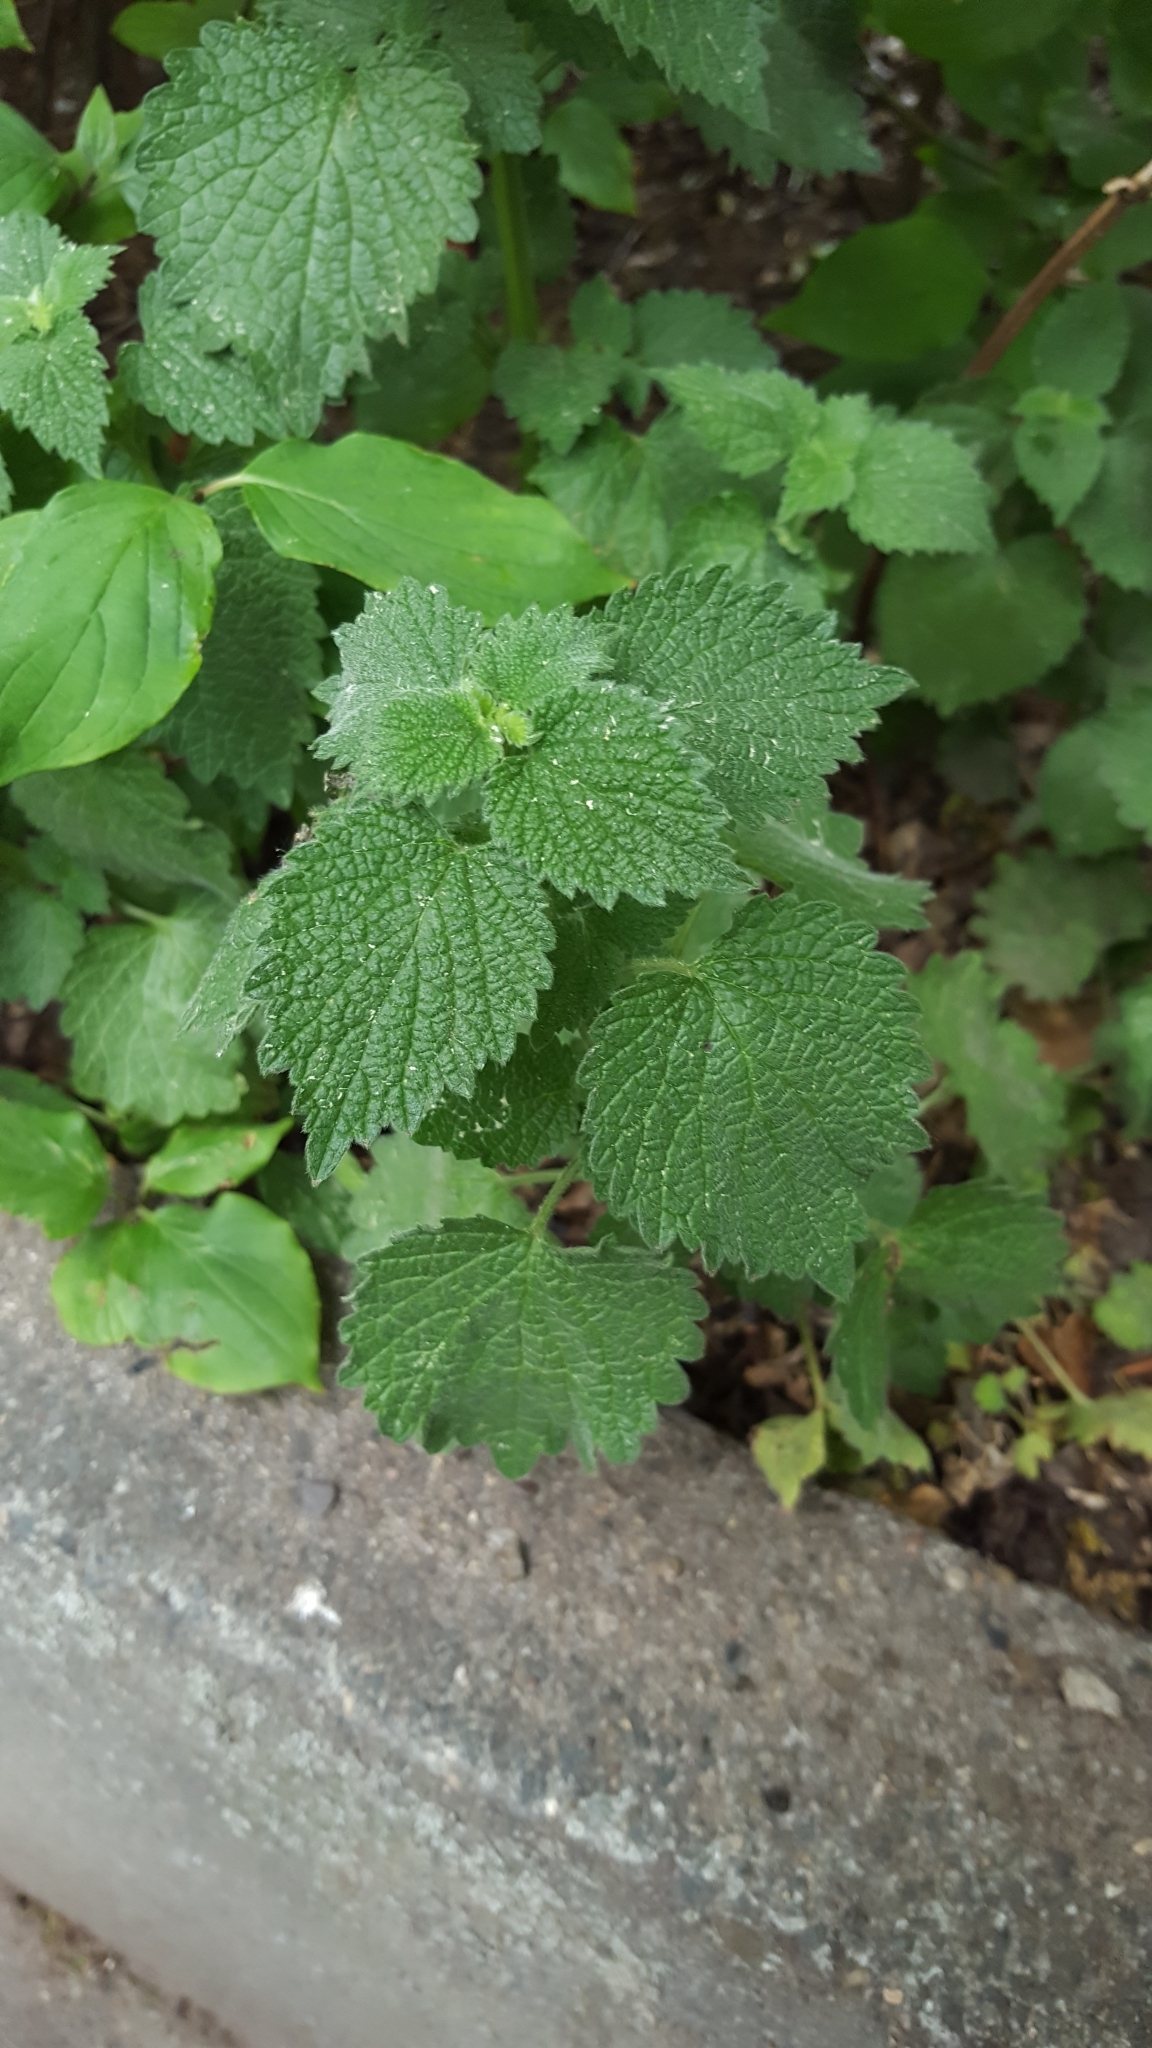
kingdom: Plantae
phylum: Tracheophyta
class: Magnoliopsida
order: Lamiales
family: Lamiaceae
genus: Ballota
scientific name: Ballota nigra
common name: Black horehound
